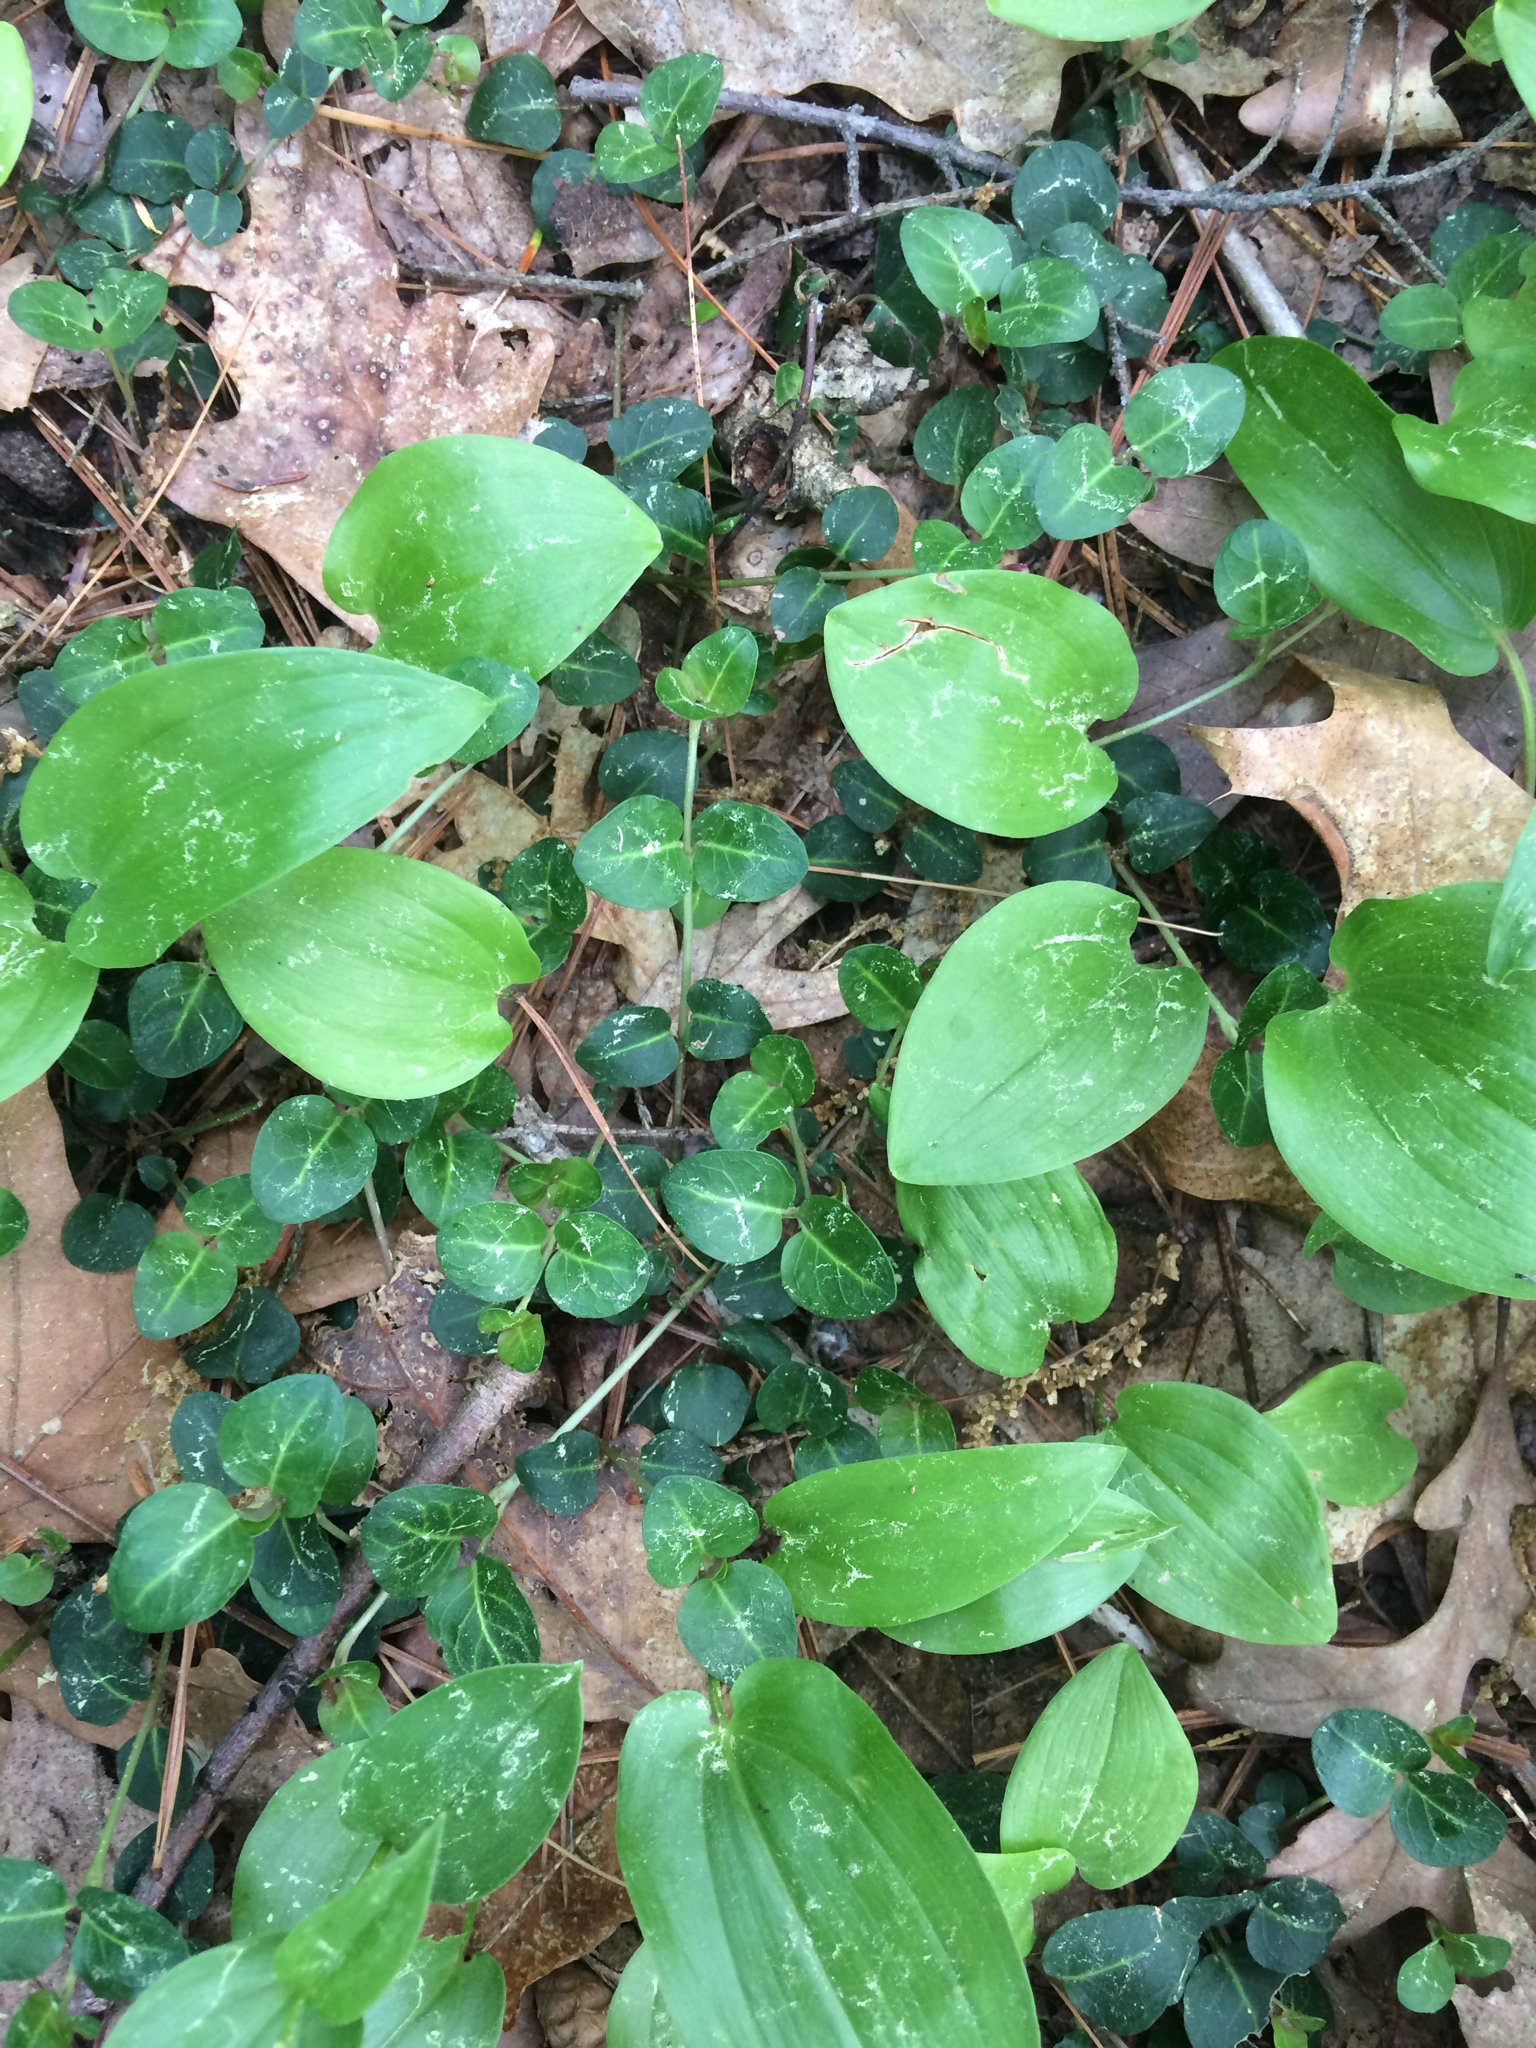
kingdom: Plantae
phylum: Tracheophyta
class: Magnoliopsida
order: Gentianales
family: Rubiaceae
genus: Mitchella
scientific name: Mitchella repens
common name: Partridge-berry
